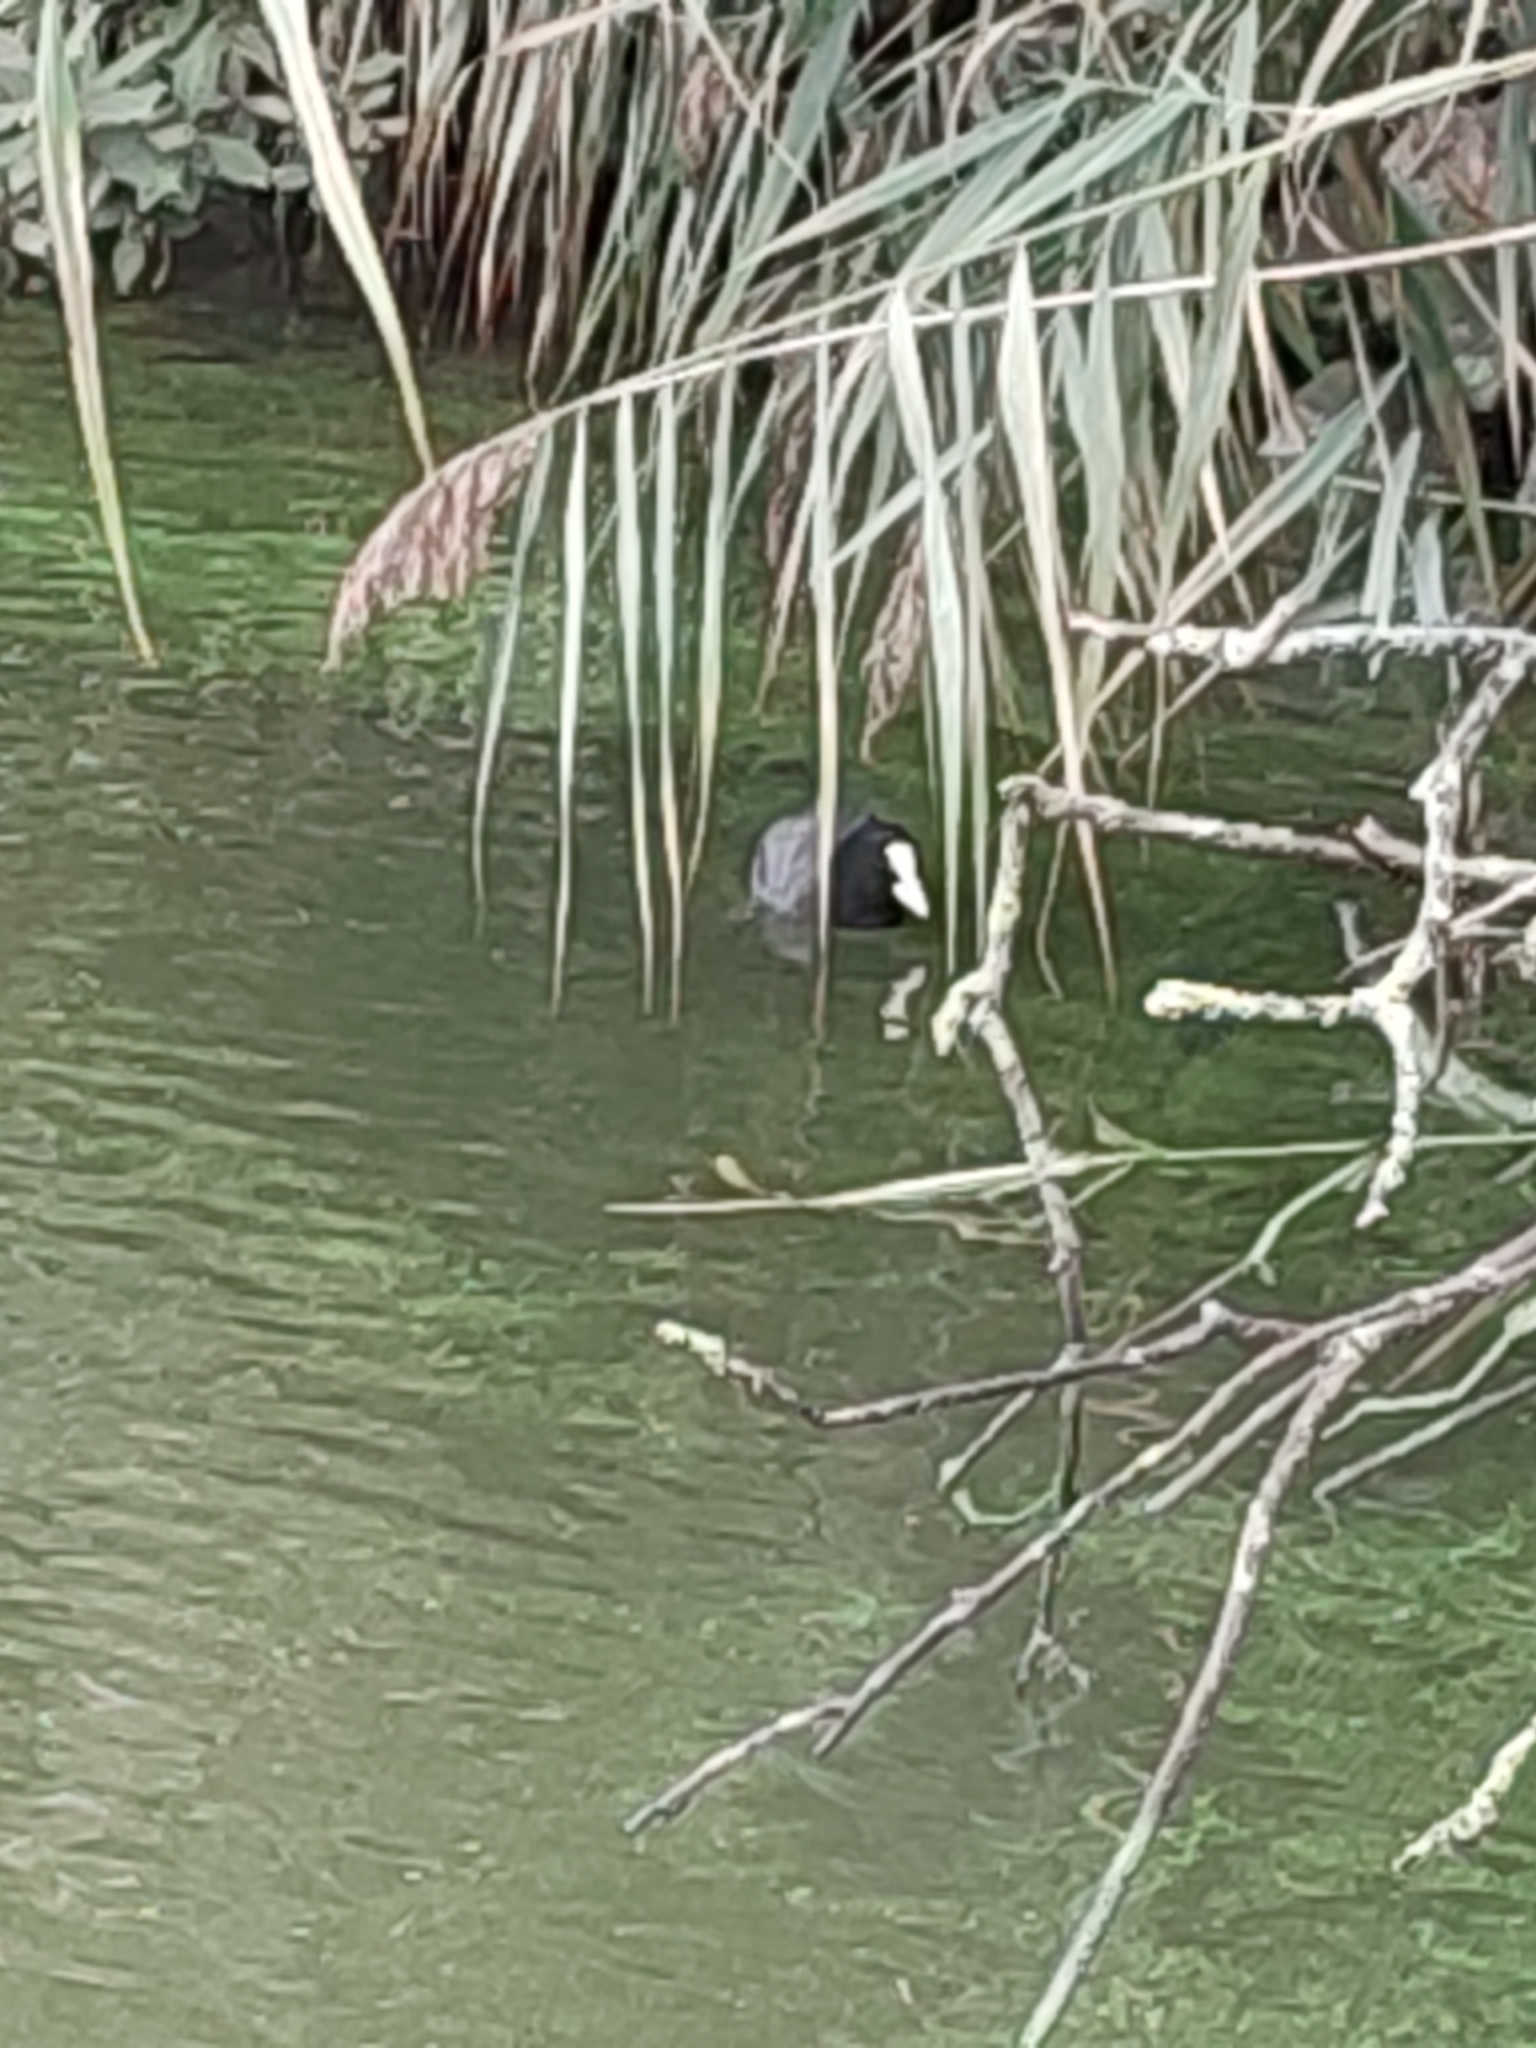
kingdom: Animalia
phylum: Chordata
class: Aves
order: Gruiformes
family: Rallidae
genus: Fulica
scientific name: Fulica atra
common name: Eurasian coot
